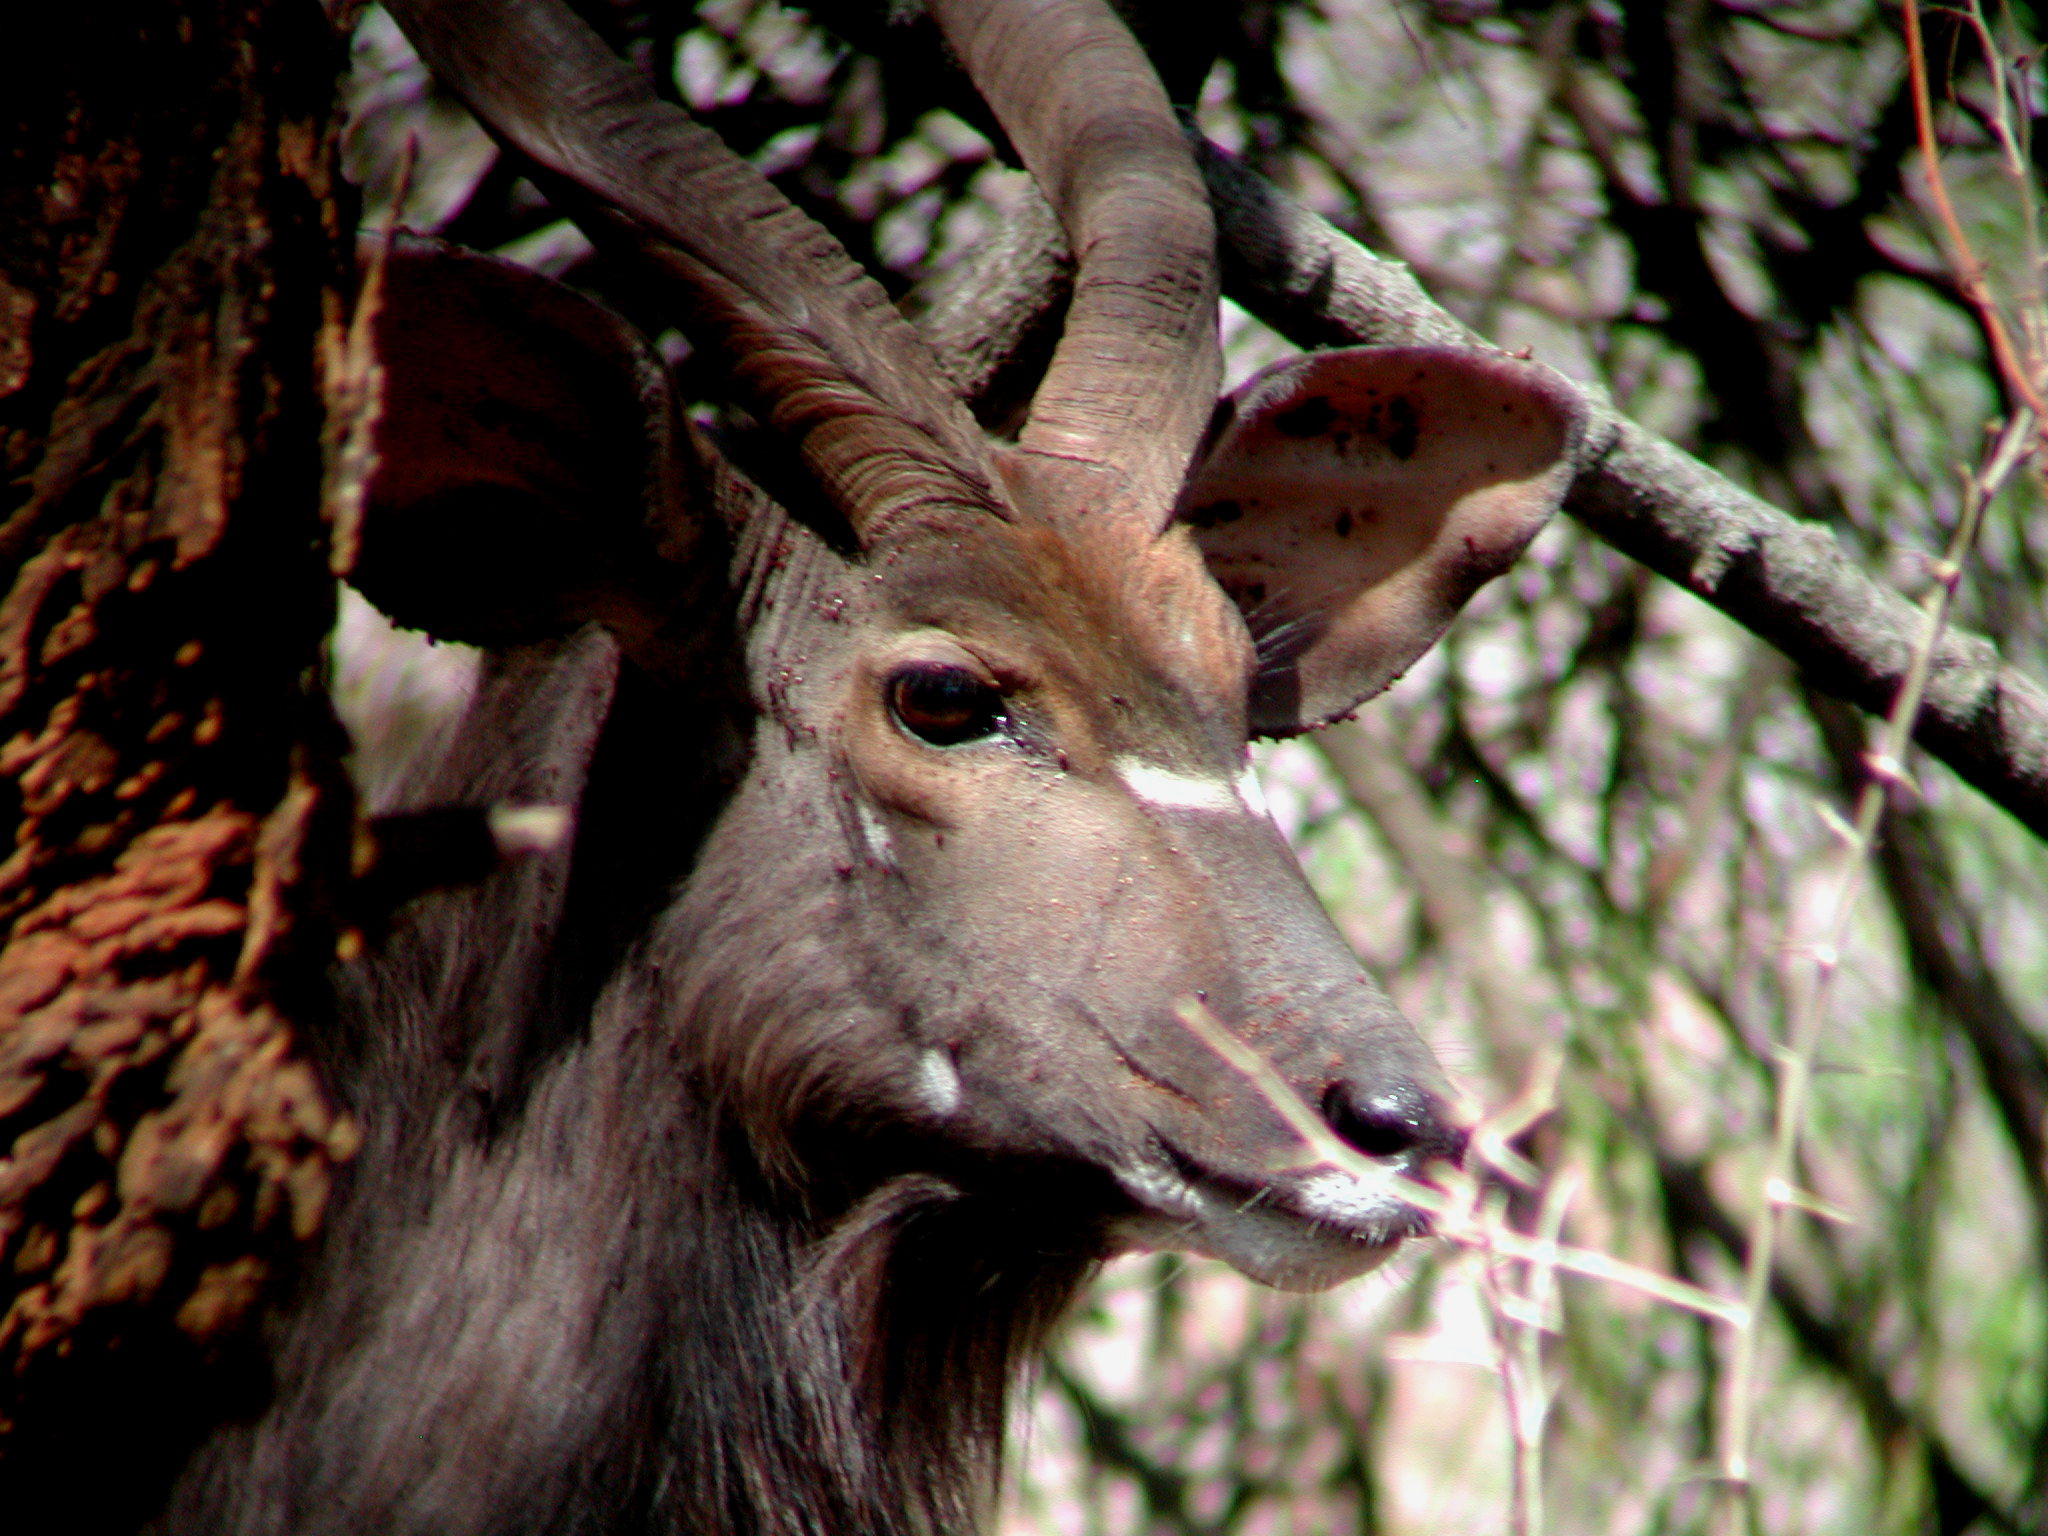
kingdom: Animalia
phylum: Chordata
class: Mammalia
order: Artiodactyla
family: Bovidae
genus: Tragelaphus
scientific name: Tragelaphus angasii
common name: Nyala
